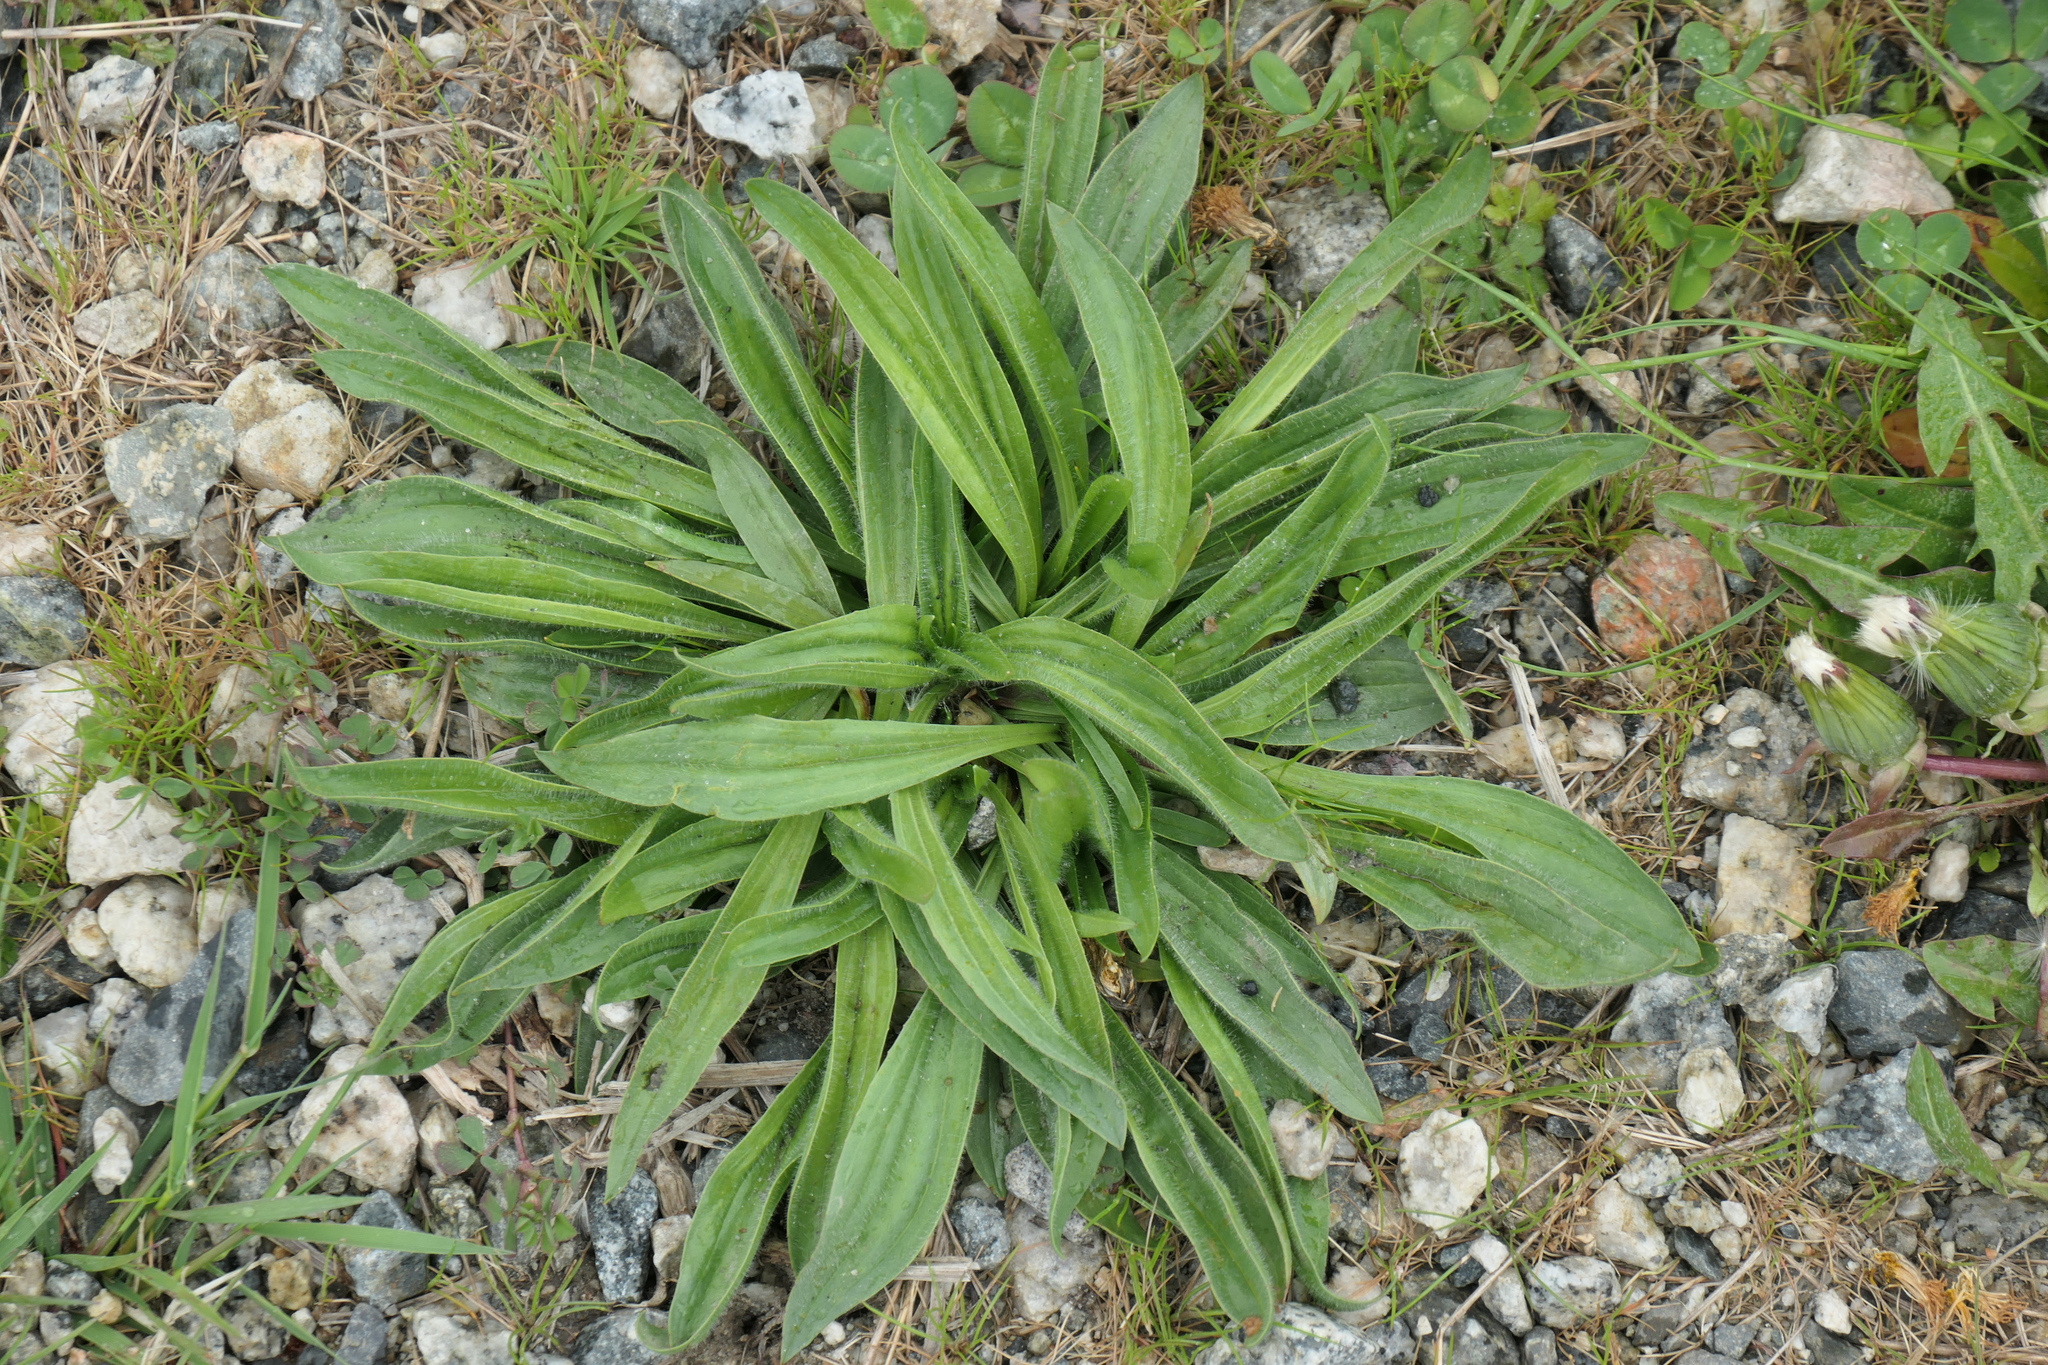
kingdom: Plantae
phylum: Tracheophyta
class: Magnoliopsida
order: Lamiales
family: Plantaginaceae
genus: Plantago
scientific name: Plantago lanceolata
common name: Ribwort plantain
